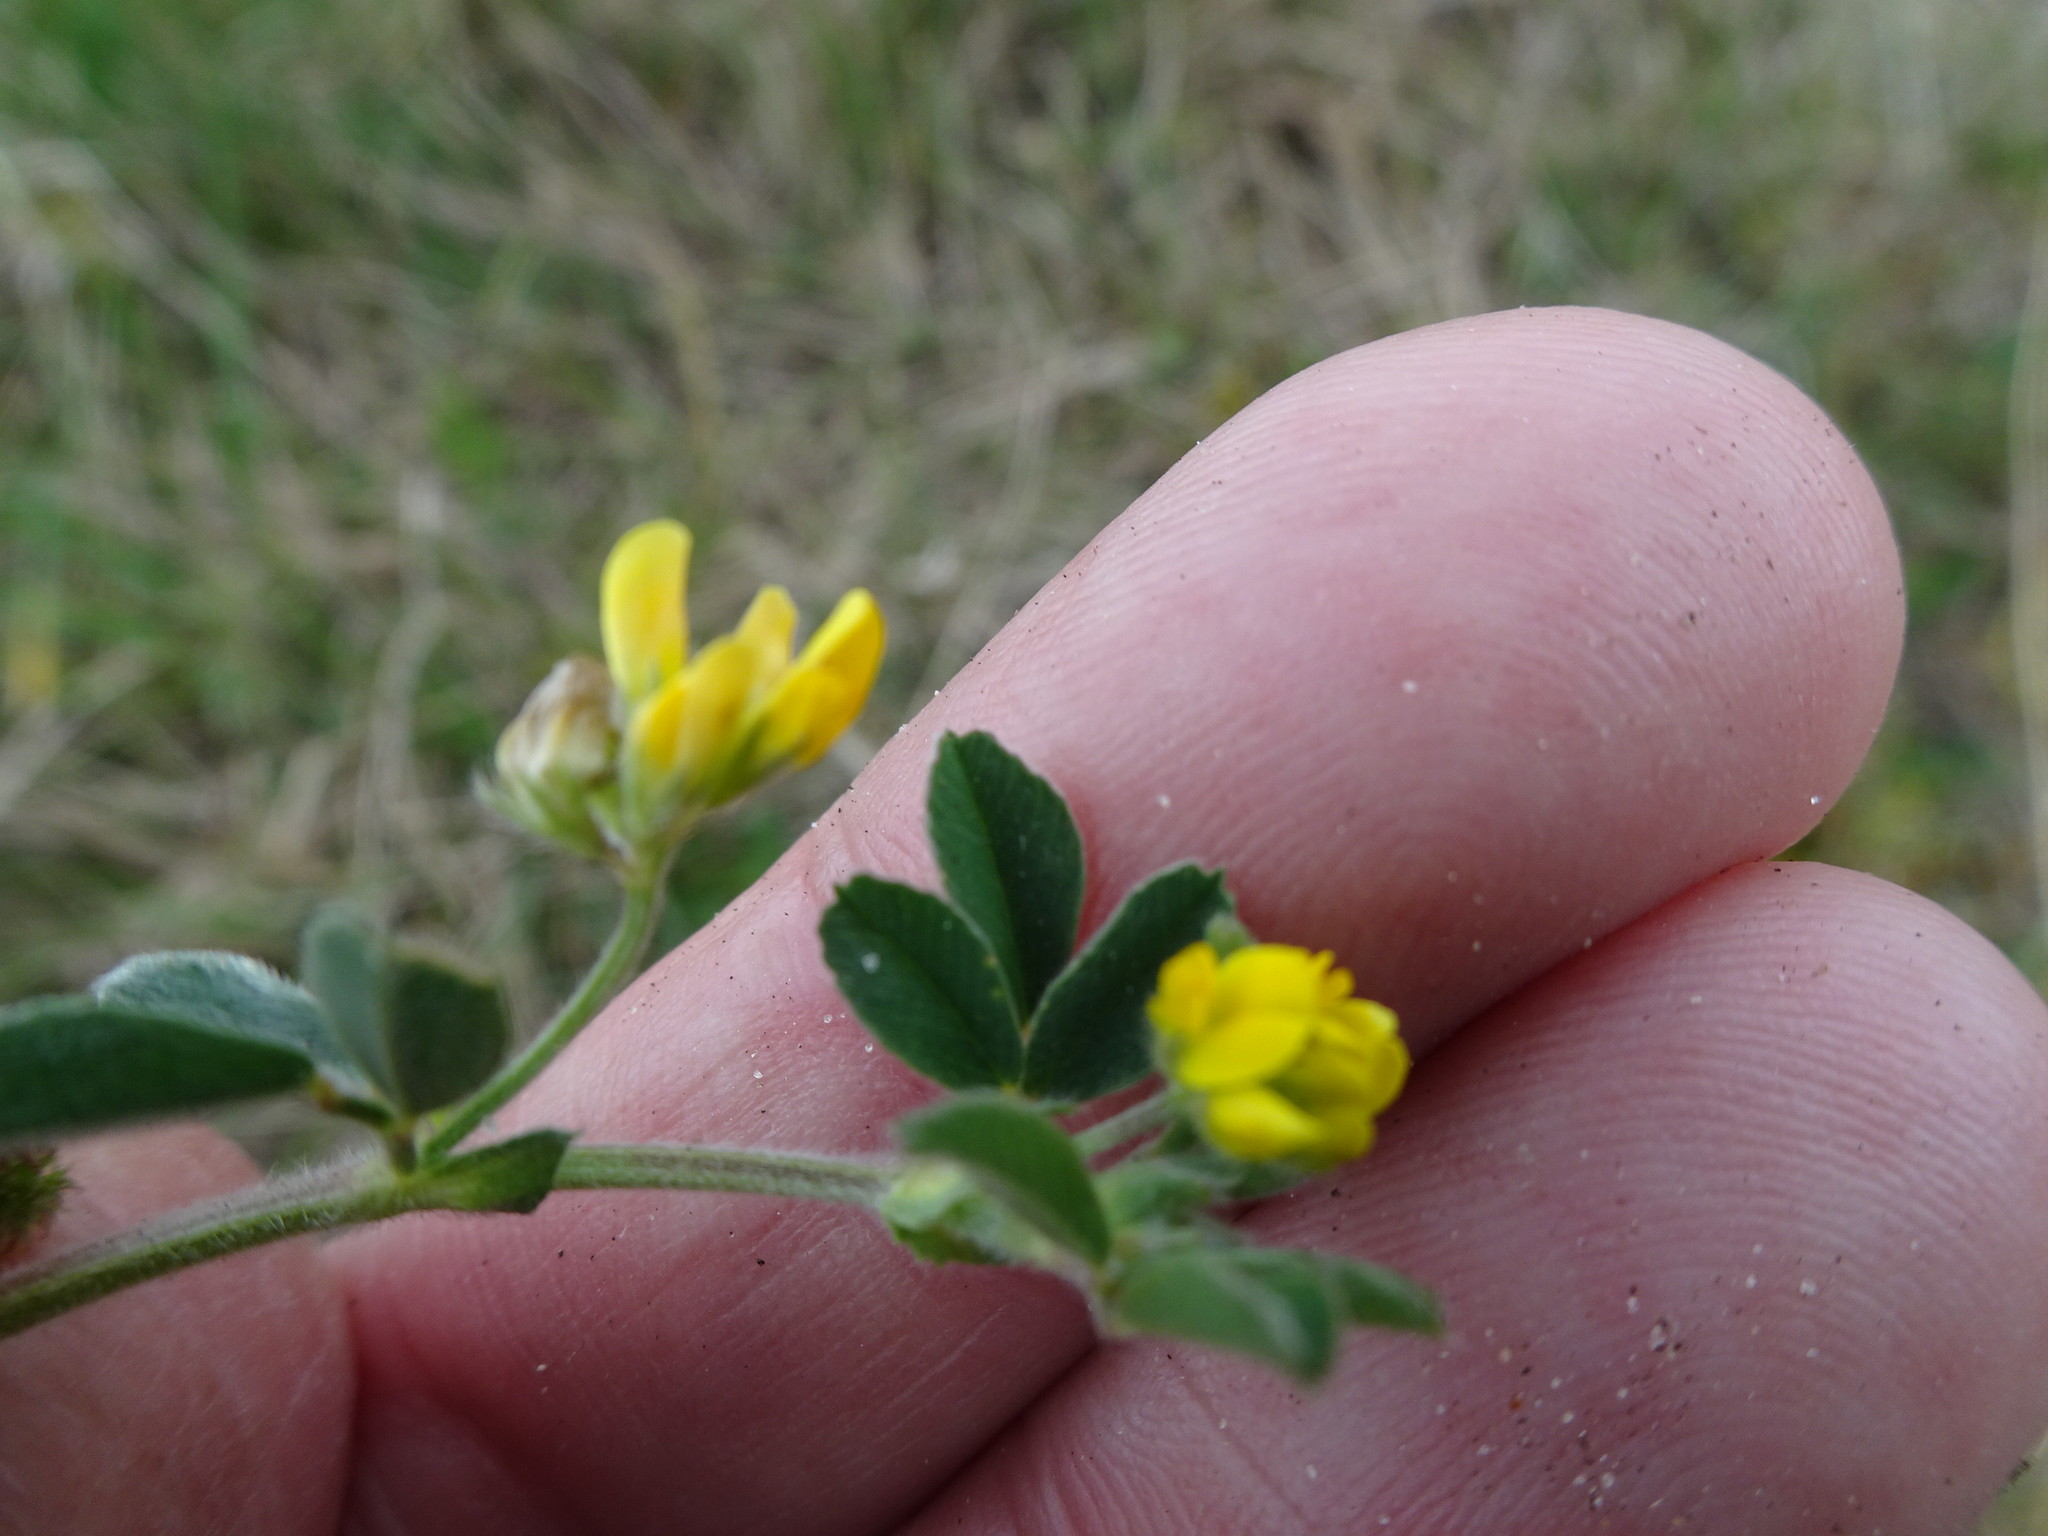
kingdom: Plantae
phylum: Tracheophyta
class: Magnoliopsida
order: Fabales
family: Fabaceae
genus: Medicago
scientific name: Medicago minima
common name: Little bur-clover
